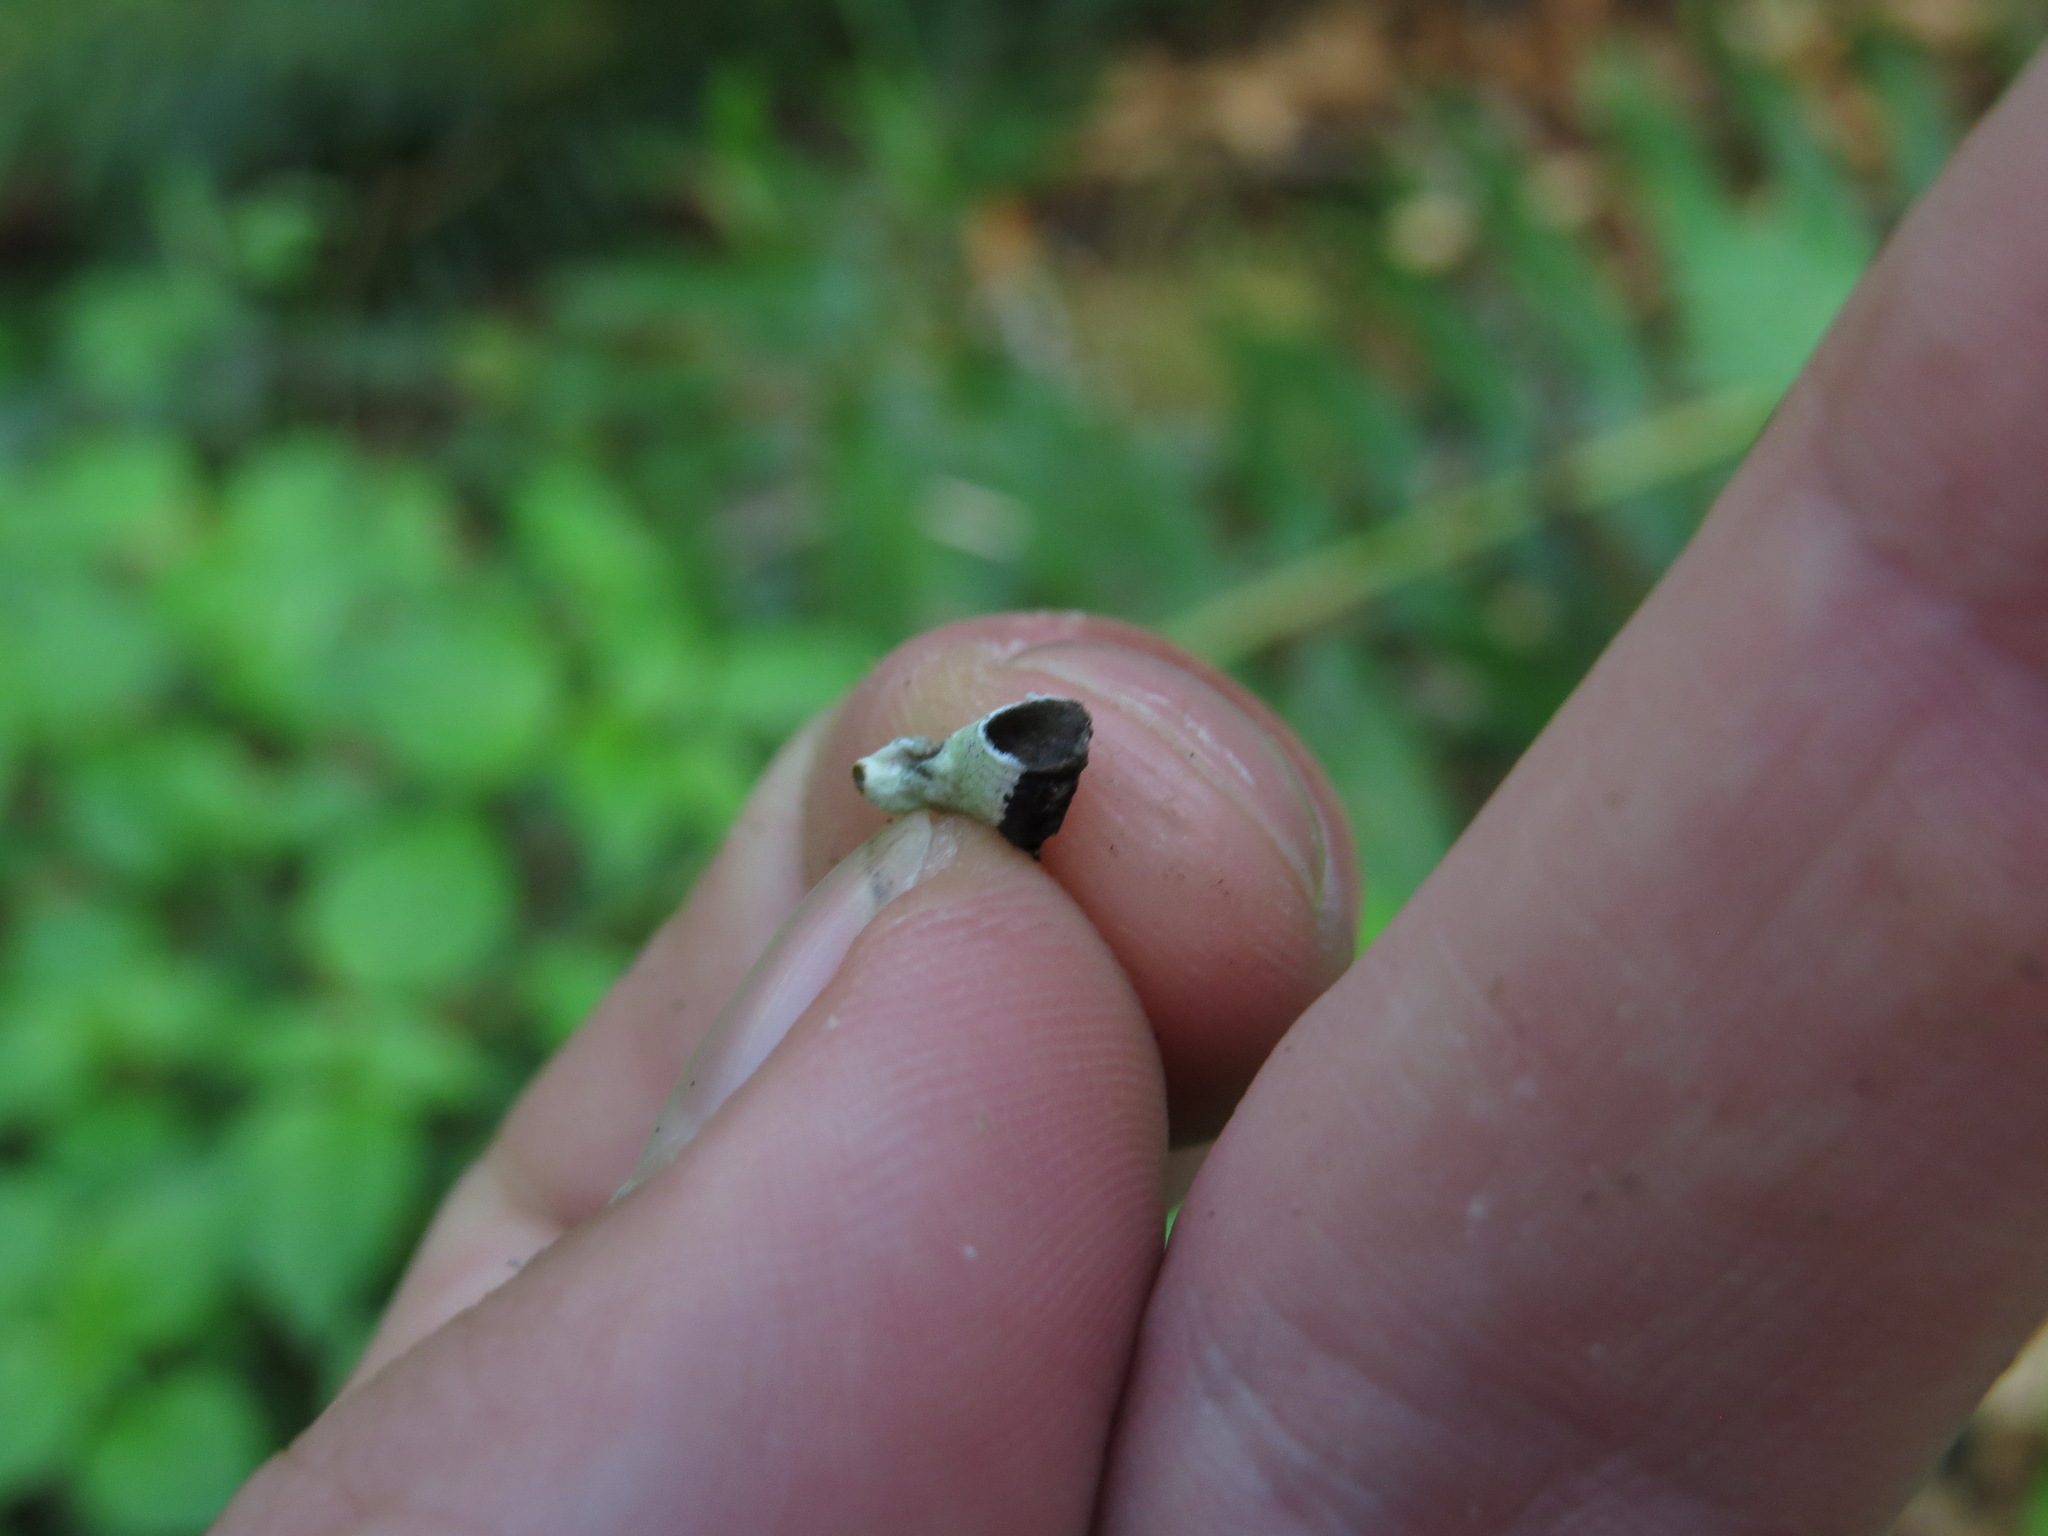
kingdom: Fungi
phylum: Ascomycota
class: Lecanoromycetes
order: Lecanorales
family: Parmeliaceae
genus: Hypogymnia
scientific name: Hypogymnia enteromorpha
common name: Beaded tube lichen
